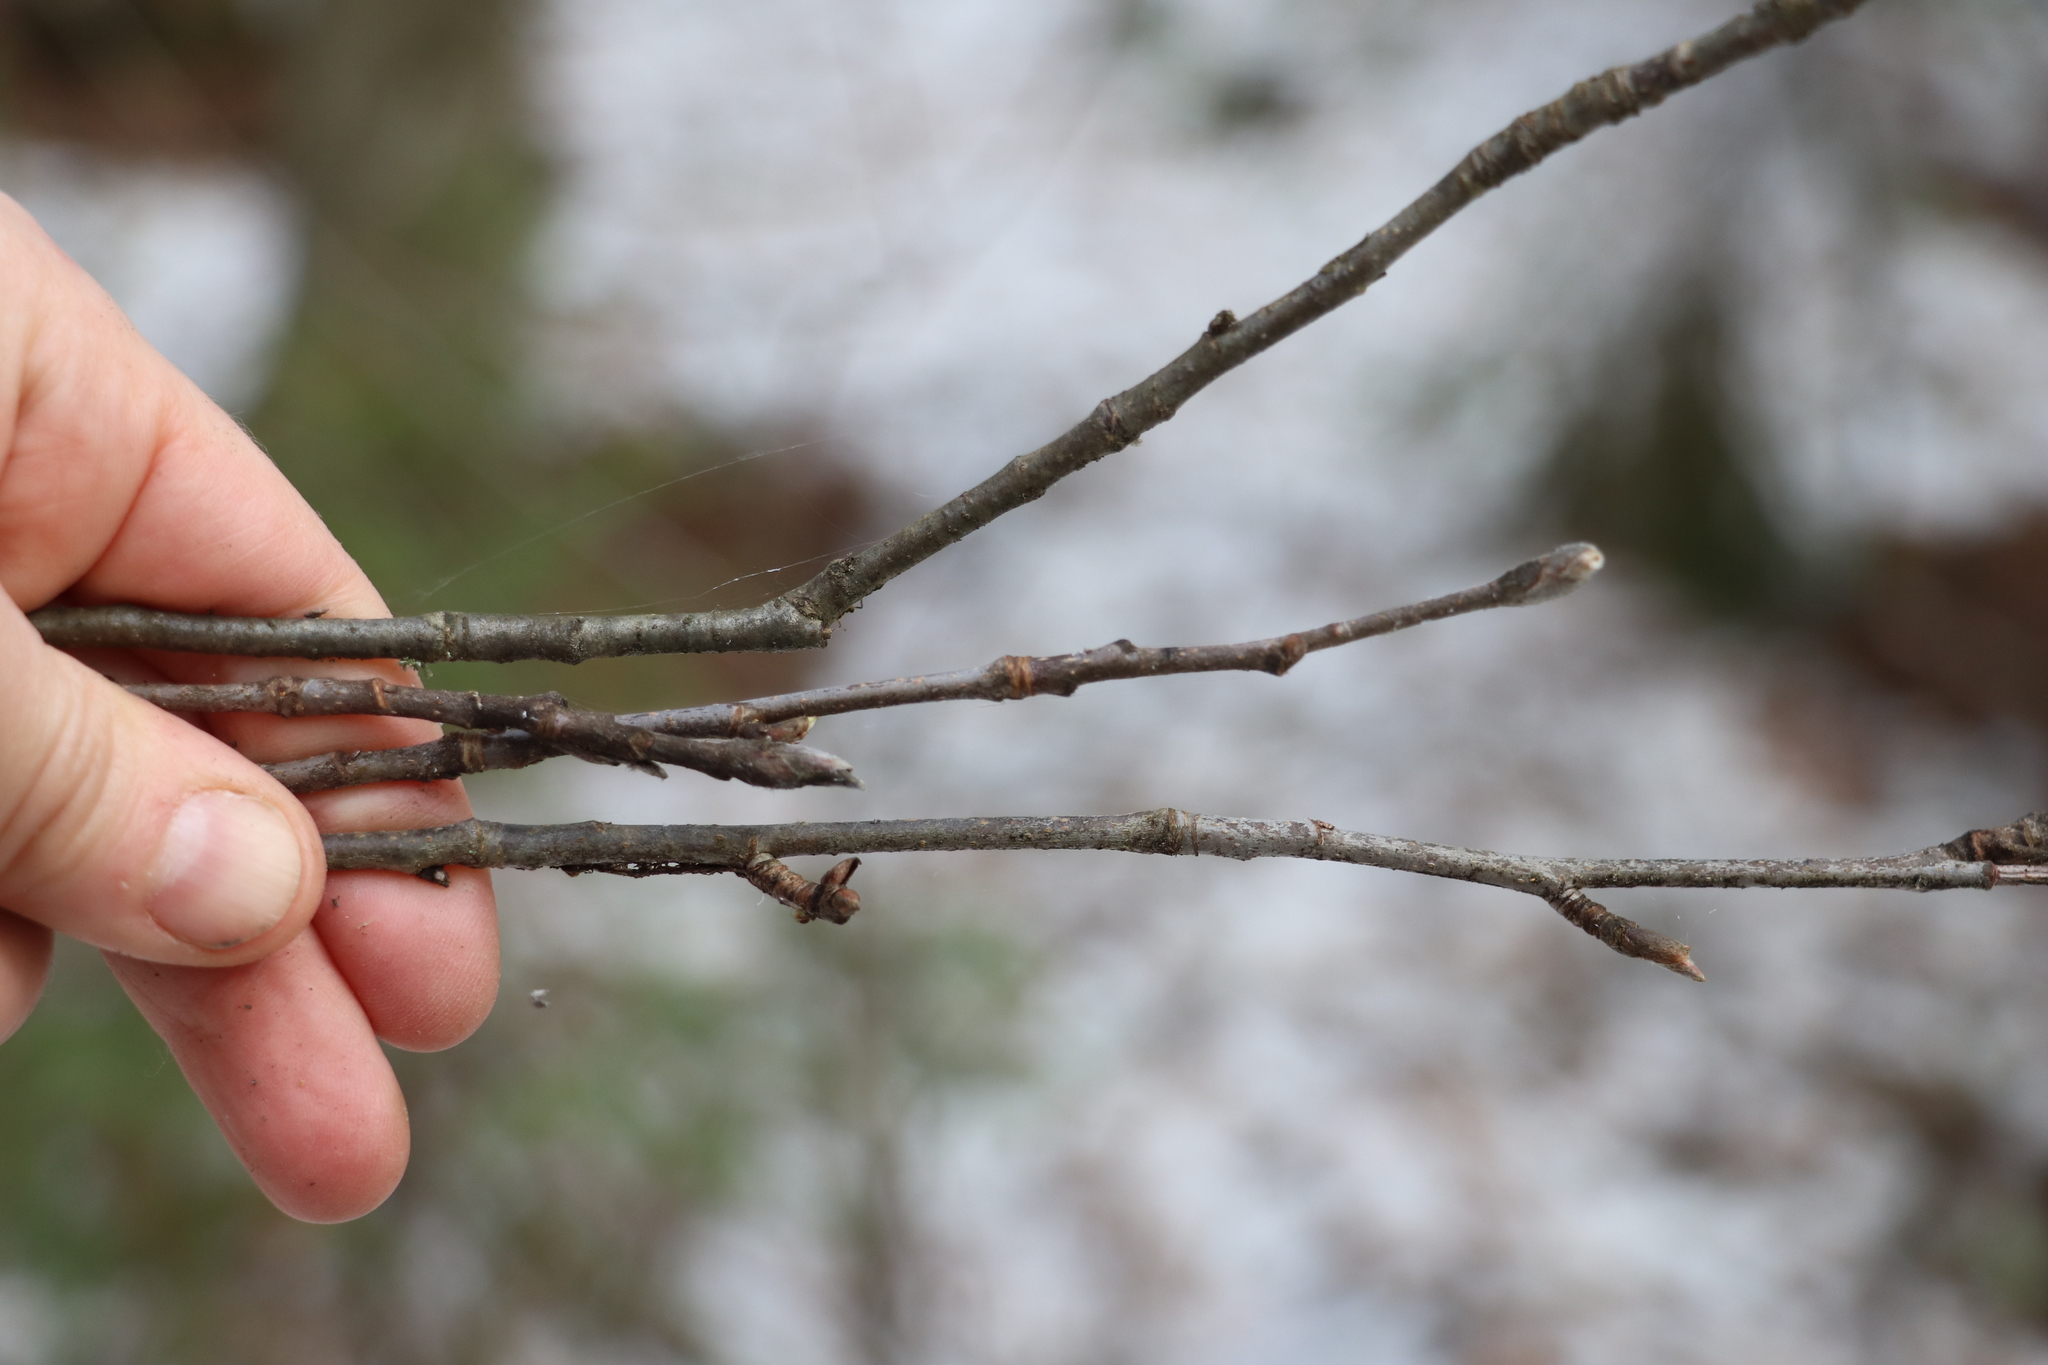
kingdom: Plantae
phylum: Tracheophyta
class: Magnoliopsida
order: Rosales
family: Rosaceae
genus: Sorbus
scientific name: Sorbus aucuparia
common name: Rowan
